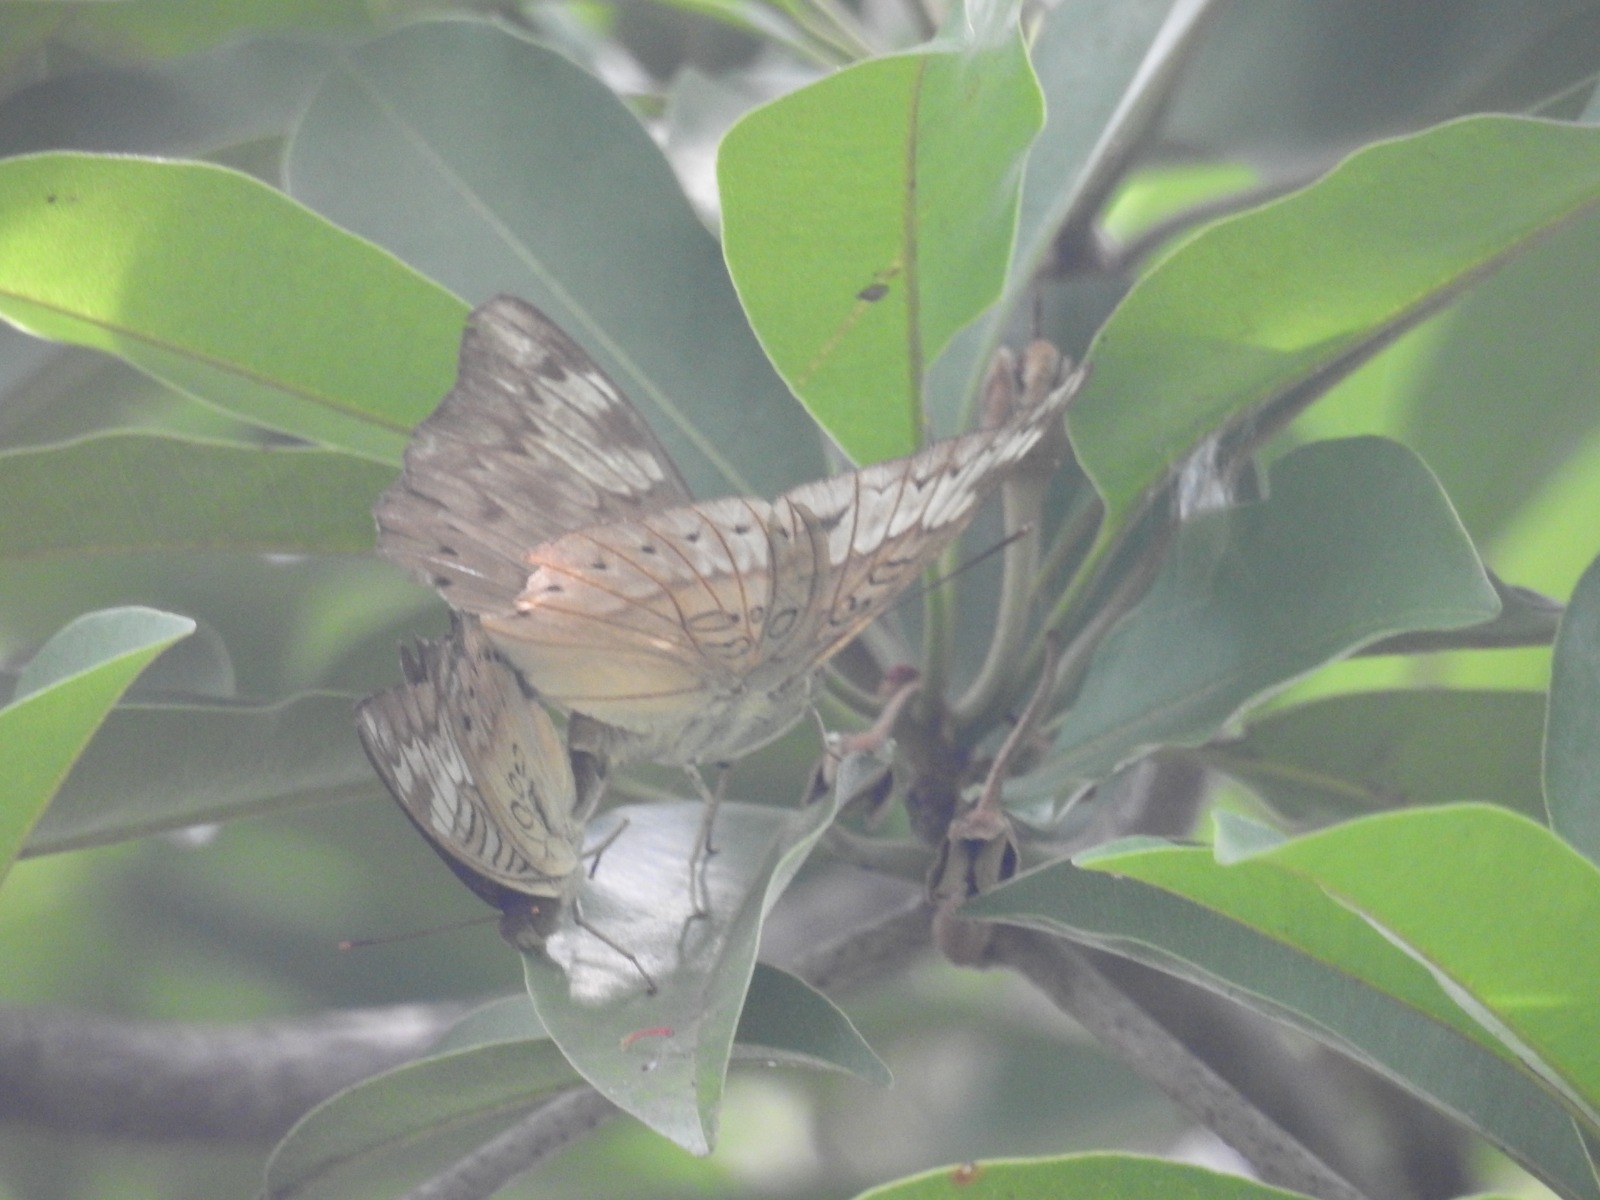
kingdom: Animalia
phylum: Arthropoda
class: Insecta
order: Lepidoptera
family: Nymphalidae
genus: Euthalia
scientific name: Euthalia aconthea
